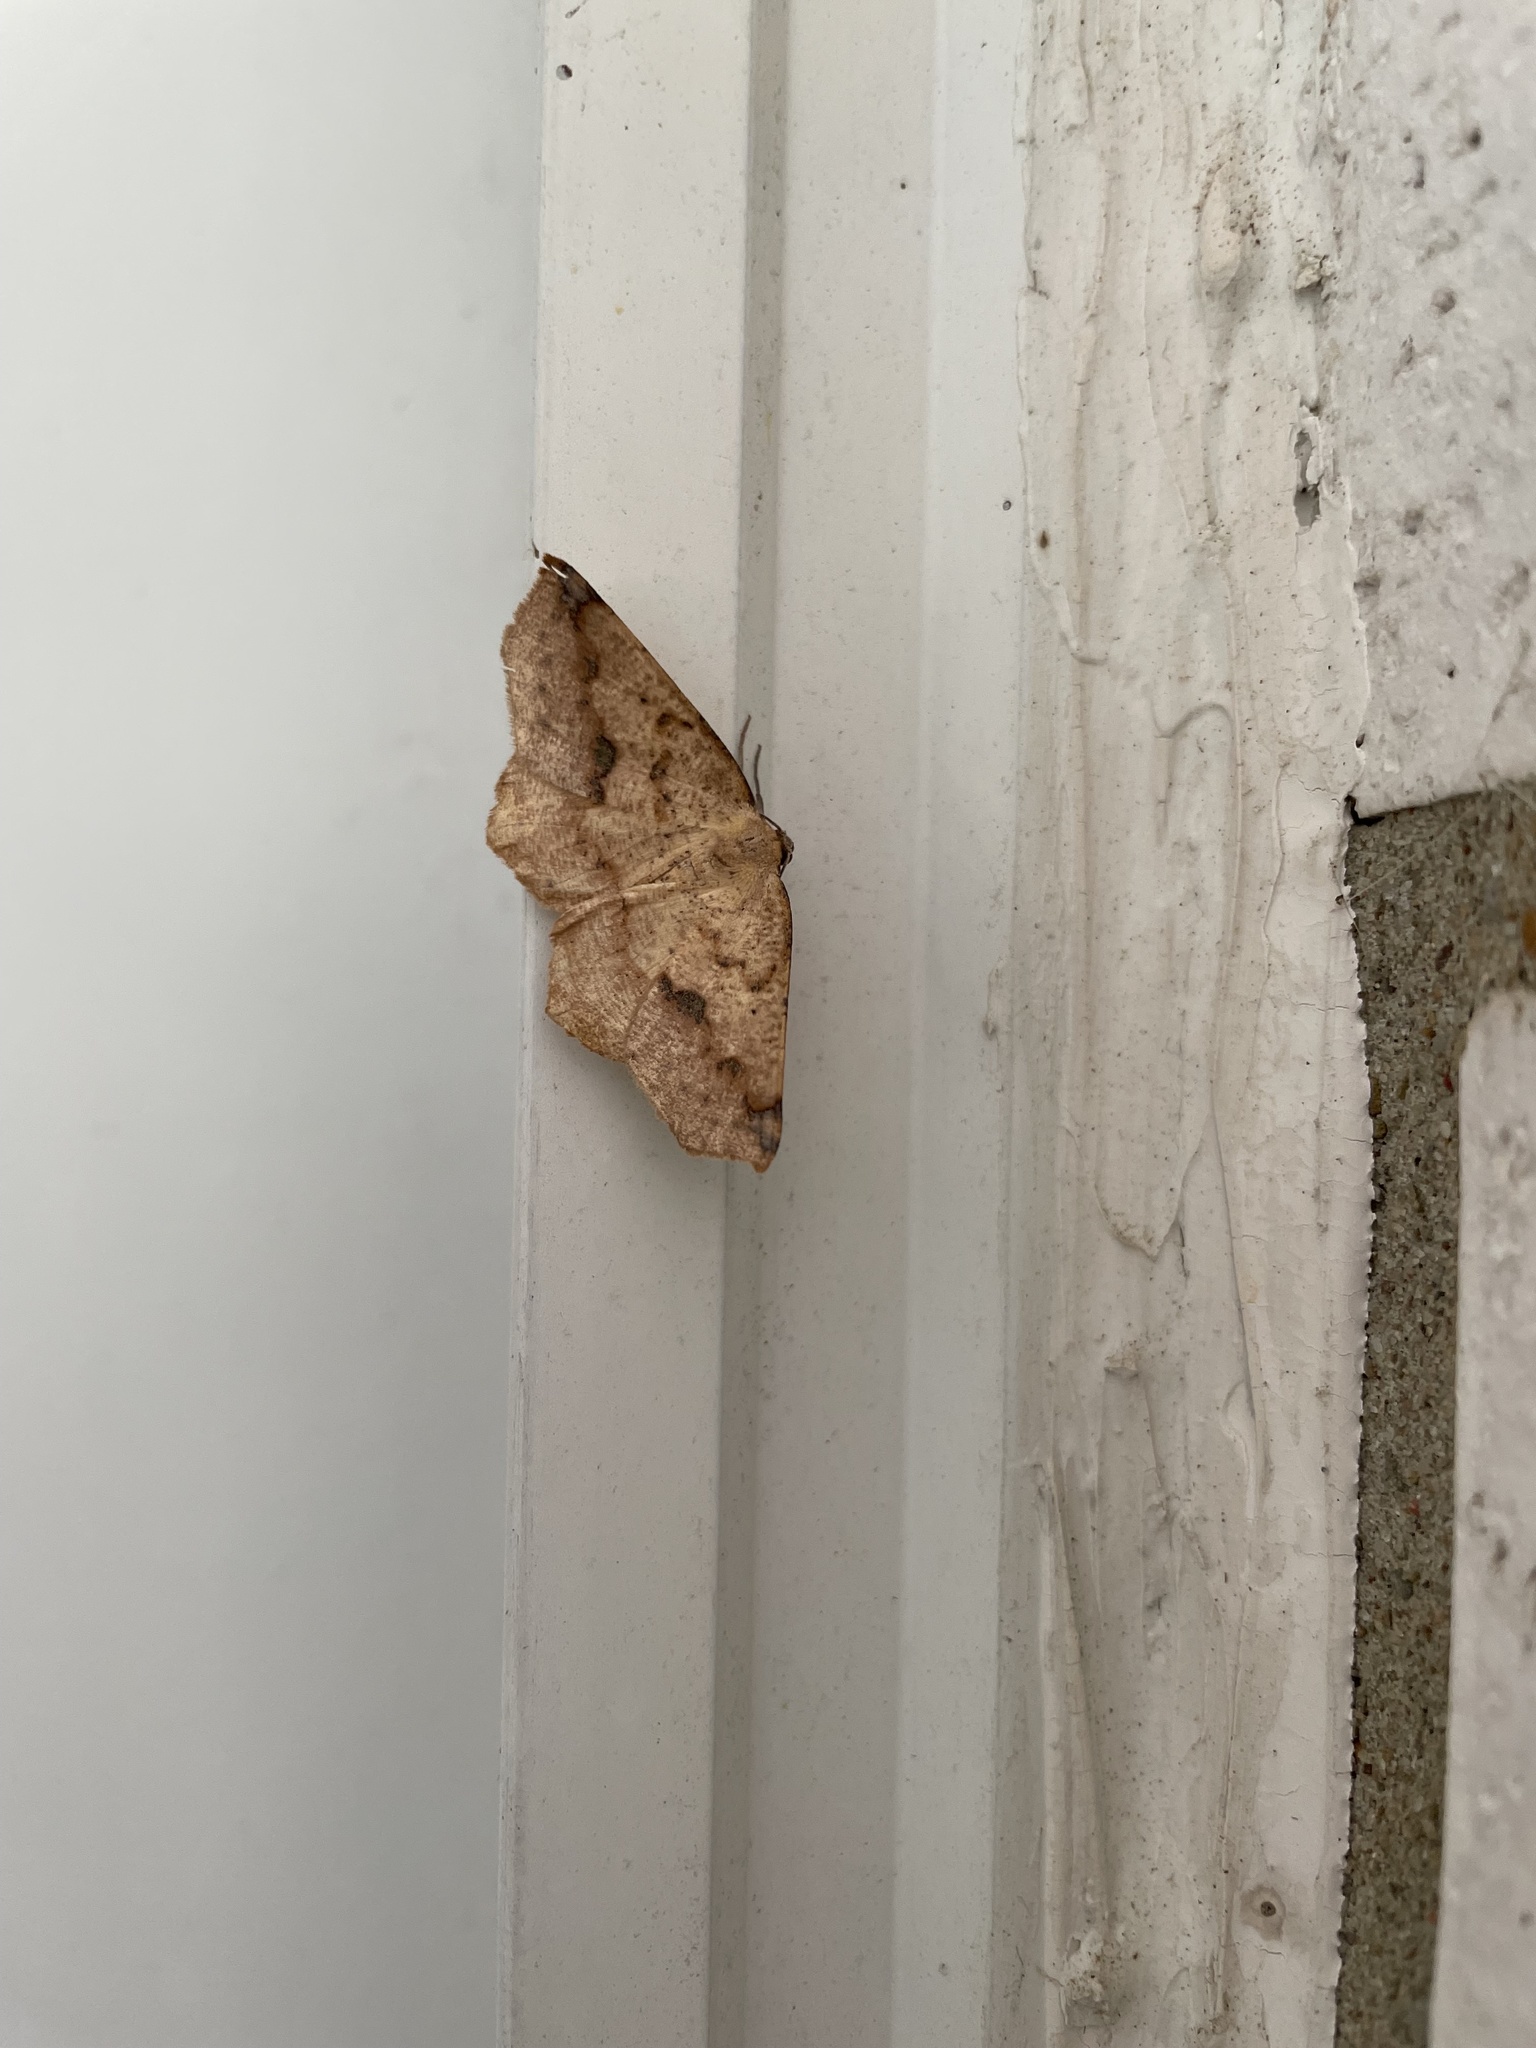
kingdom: Animalia
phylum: Arthropoda
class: Insecta
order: Lepidoptera
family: Geometridae
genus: Antepione
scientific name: Antepione thisoaria
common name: Variable antipione
